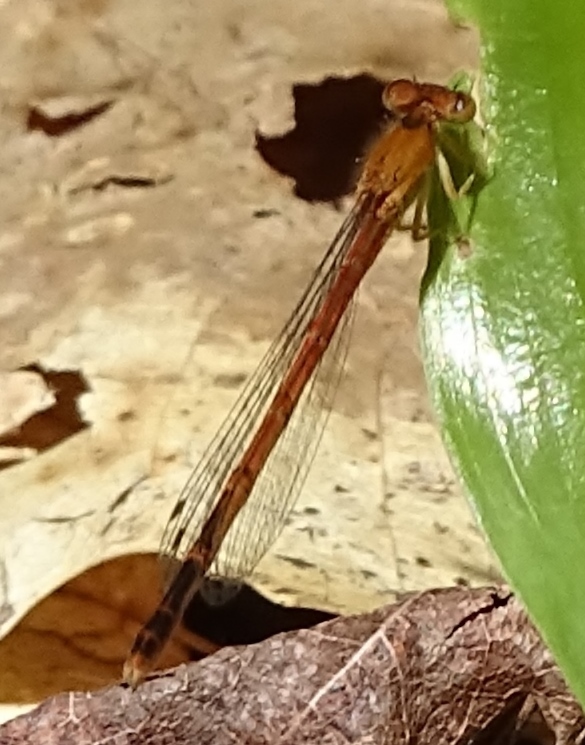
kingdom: Animalia
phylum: Arthropoda
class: Insecta
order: Odonata
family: Coenagrionidae
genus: Amphiagrion
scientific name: Amphiagrion saucium
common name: Eastern red damsel
